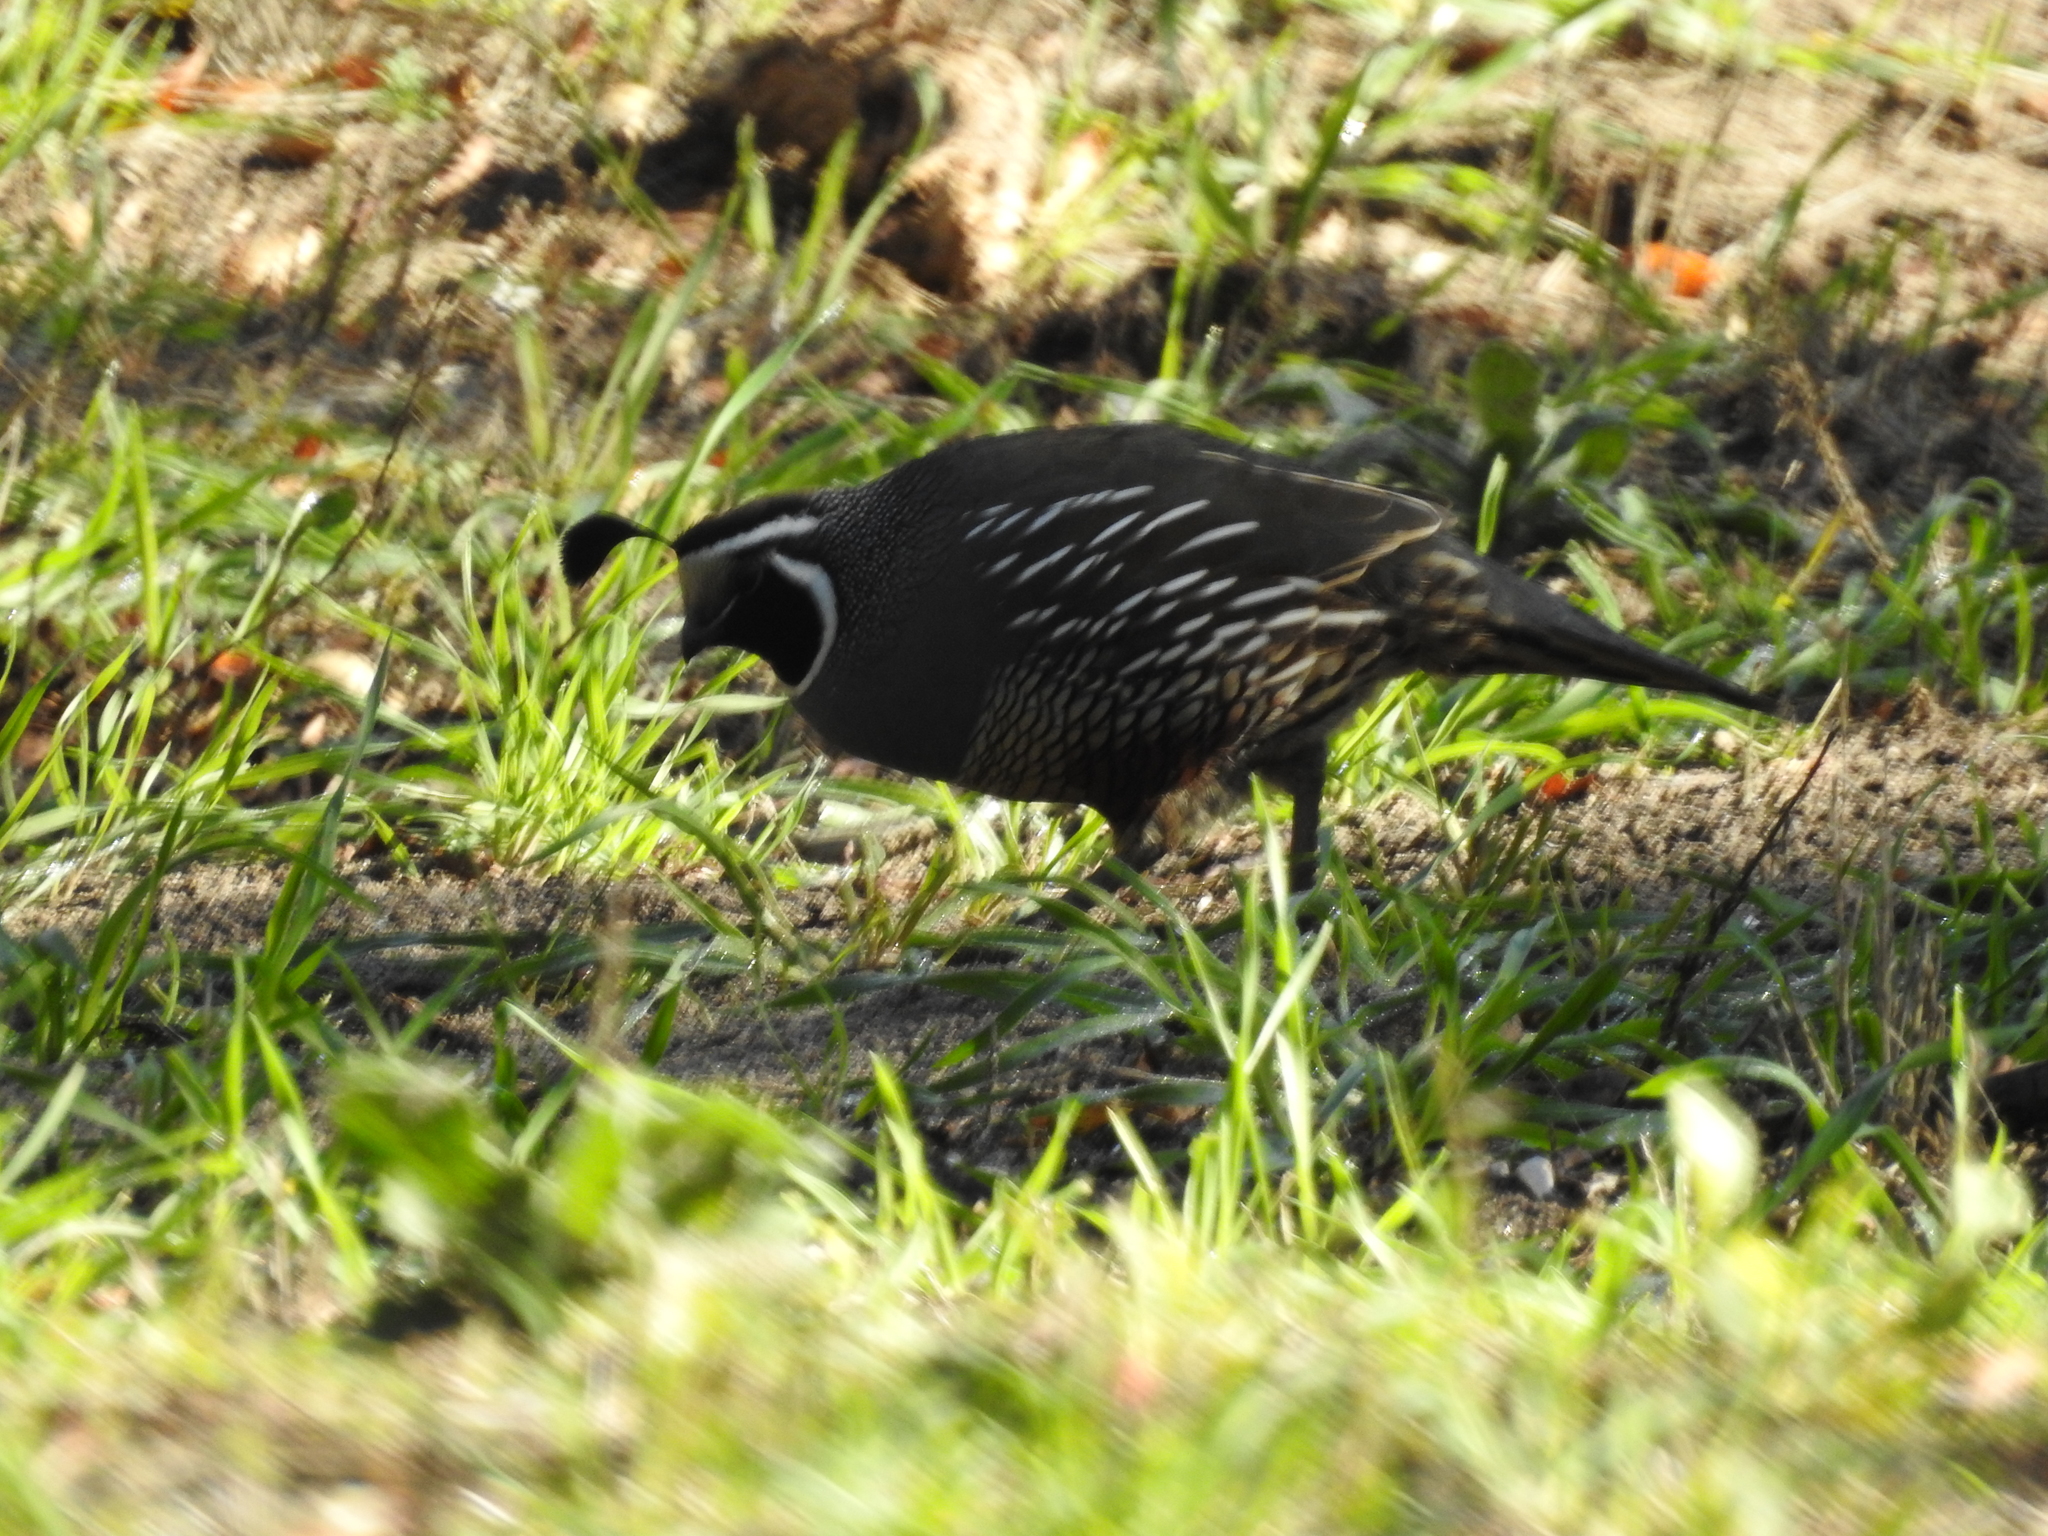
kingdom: Animalia
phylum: Chordata
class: Aves
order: Galliformes
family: Odontophoridae
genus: Callipepla
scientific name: Callipepla californica
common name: California quail
